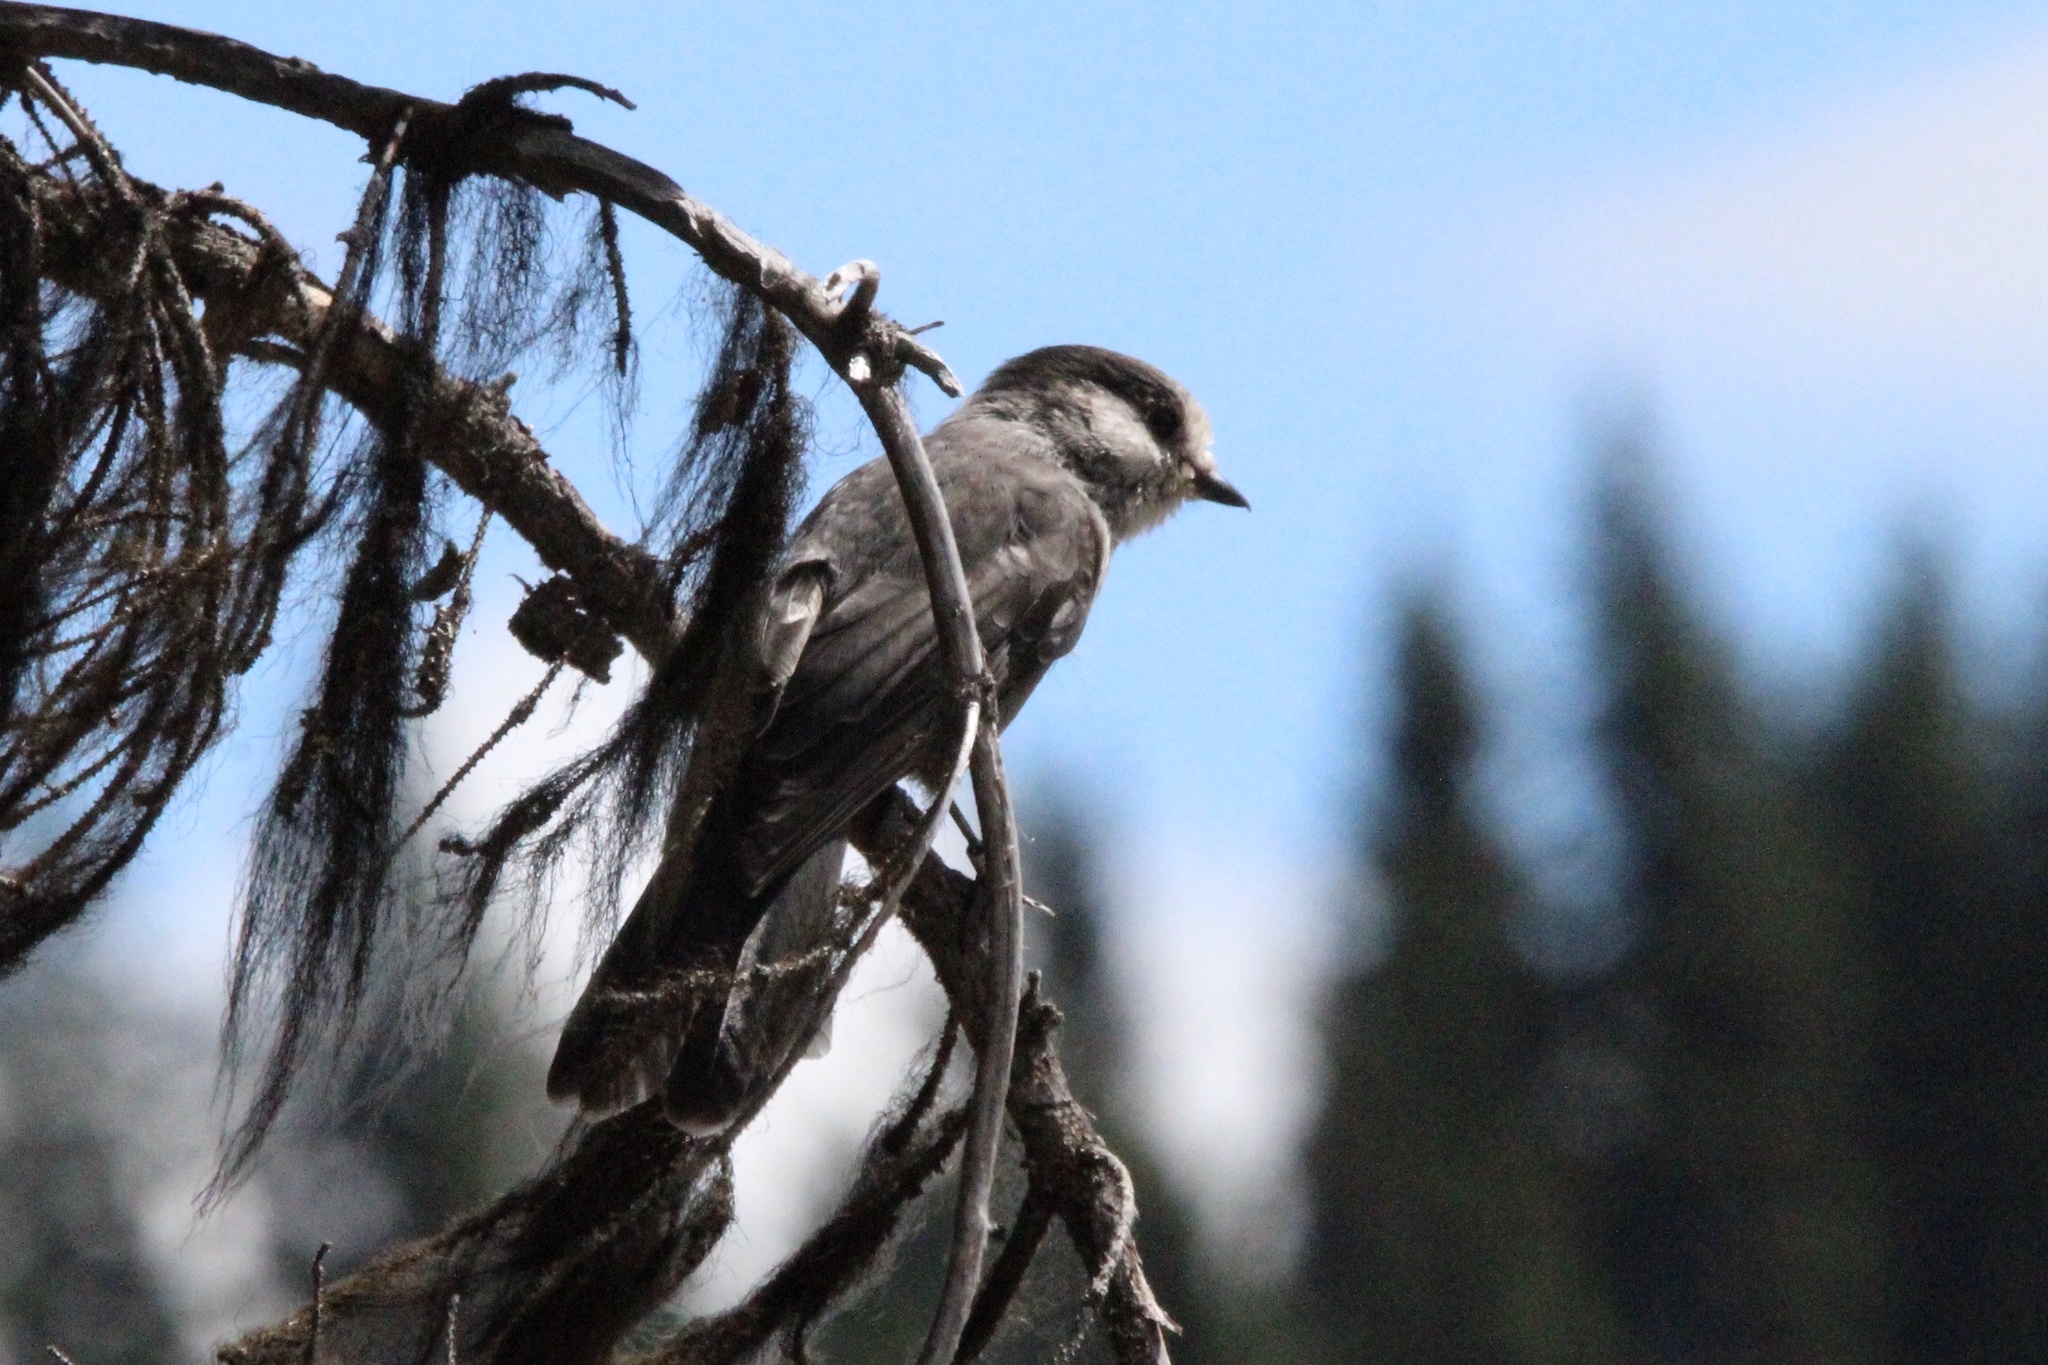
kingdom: Animalia
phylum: Chordata
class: Aves
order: Passeriformes
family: Corvidae
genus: Perisoreus
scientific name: Perisoreus canadensis
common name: Gray jay
